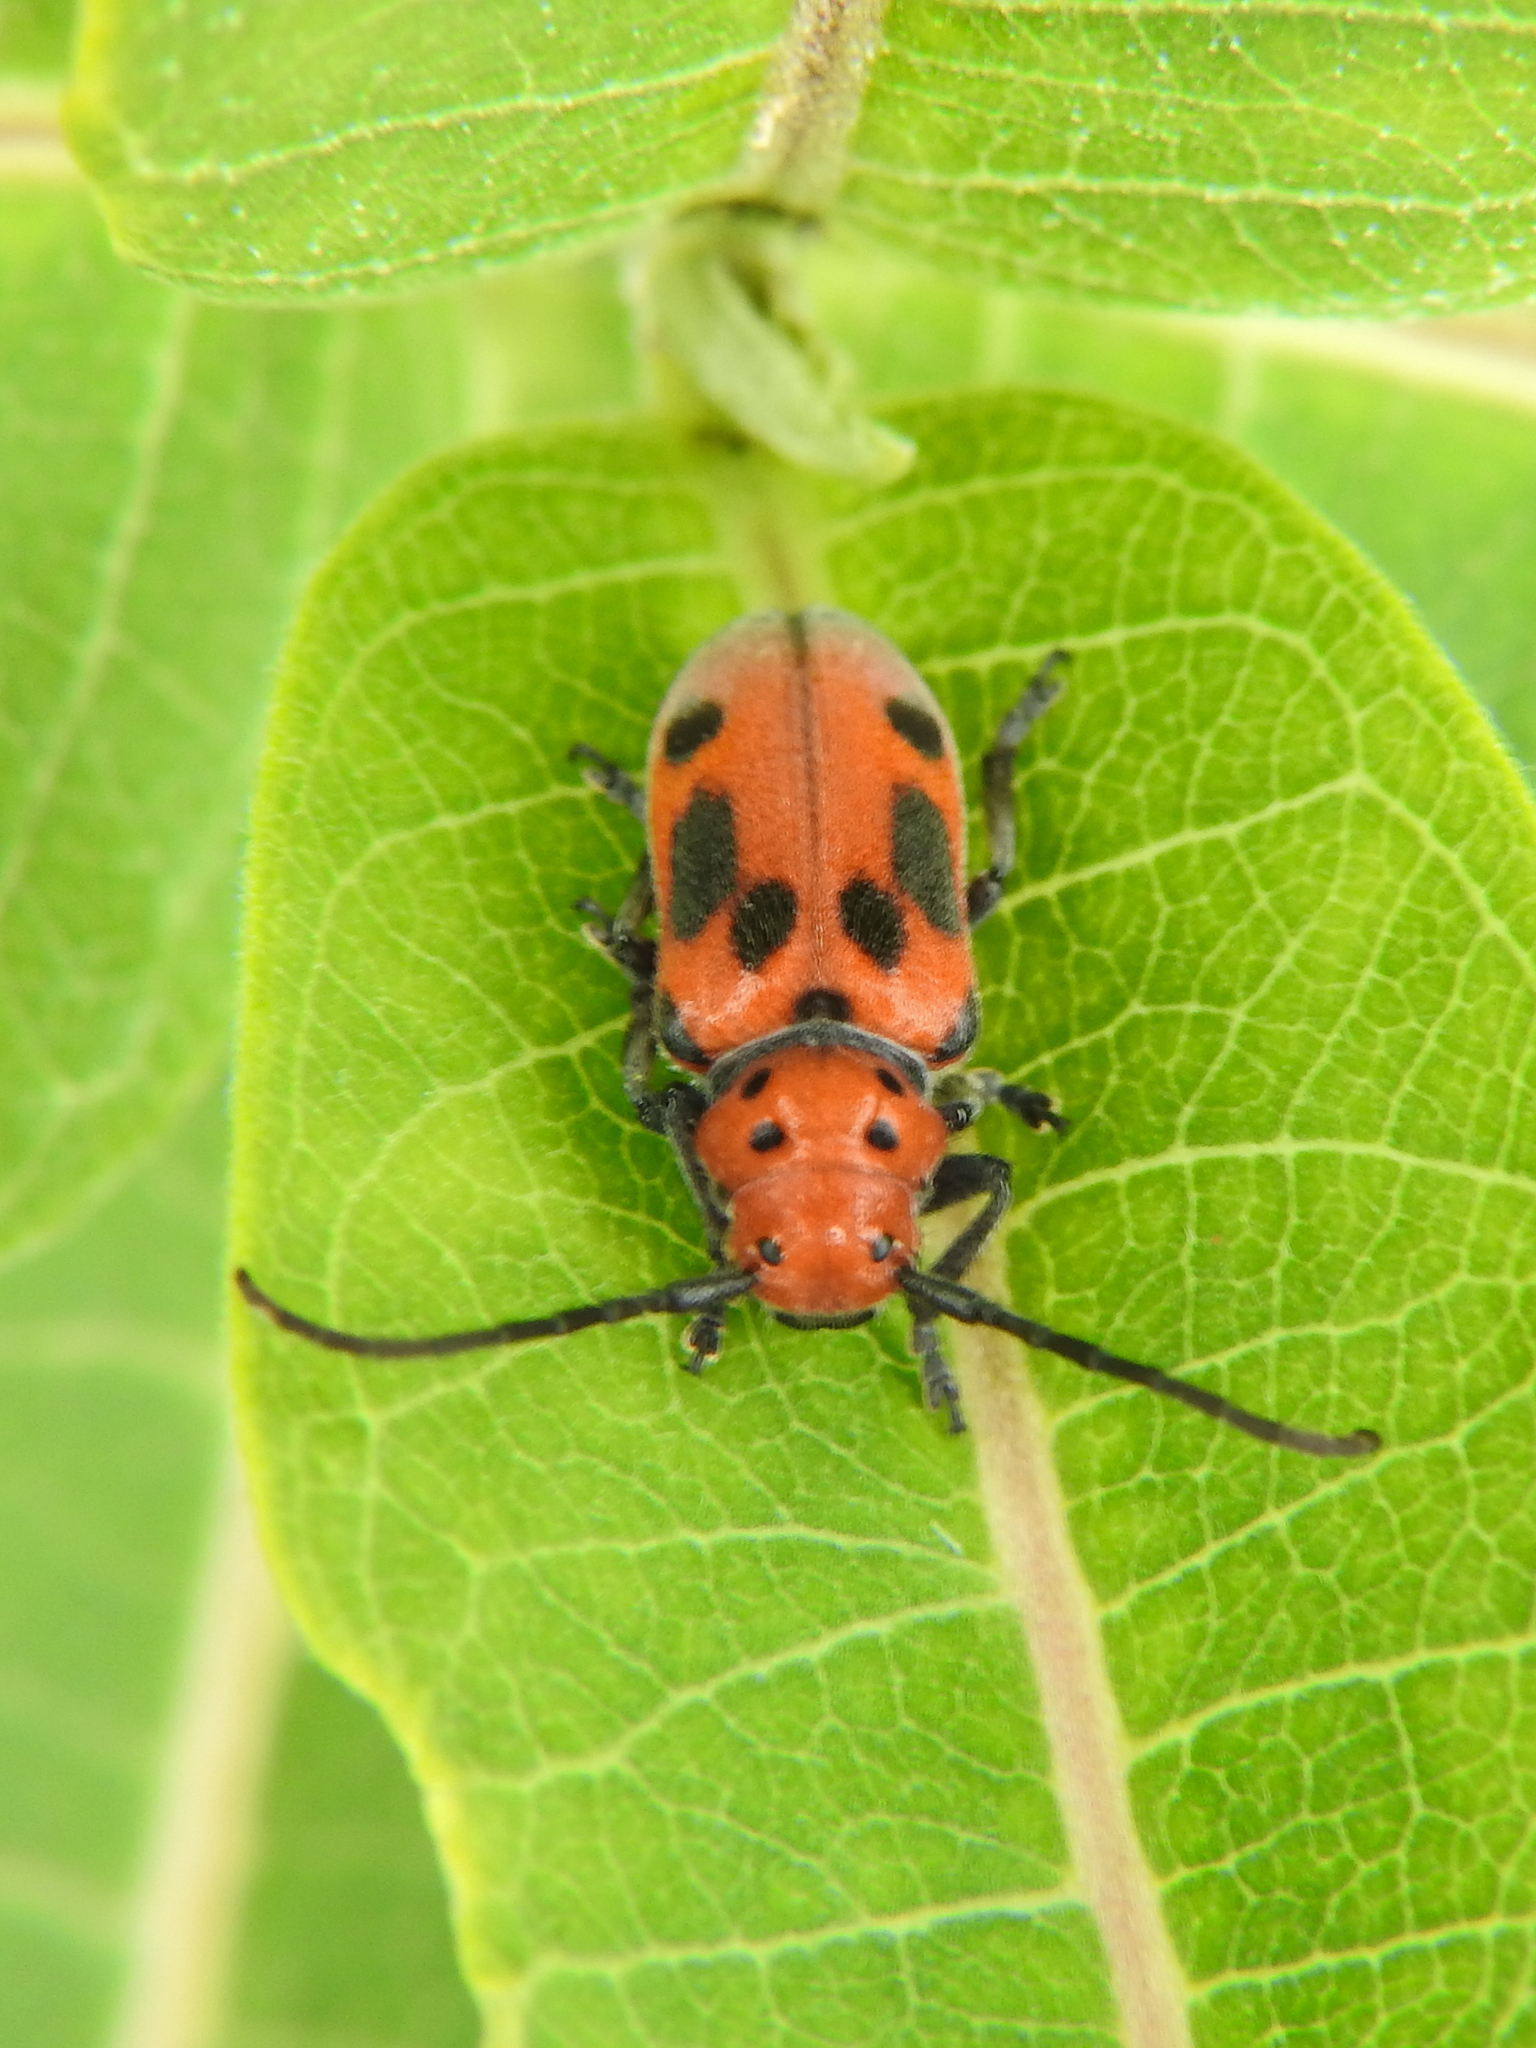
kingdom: Animalia
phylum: Arthropoda
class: Insecta
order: Coleoptera
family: Cerambycidae
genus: Tetraopes
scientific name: Tetraopes tetrophthalmus
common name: Red milkweed beetle
